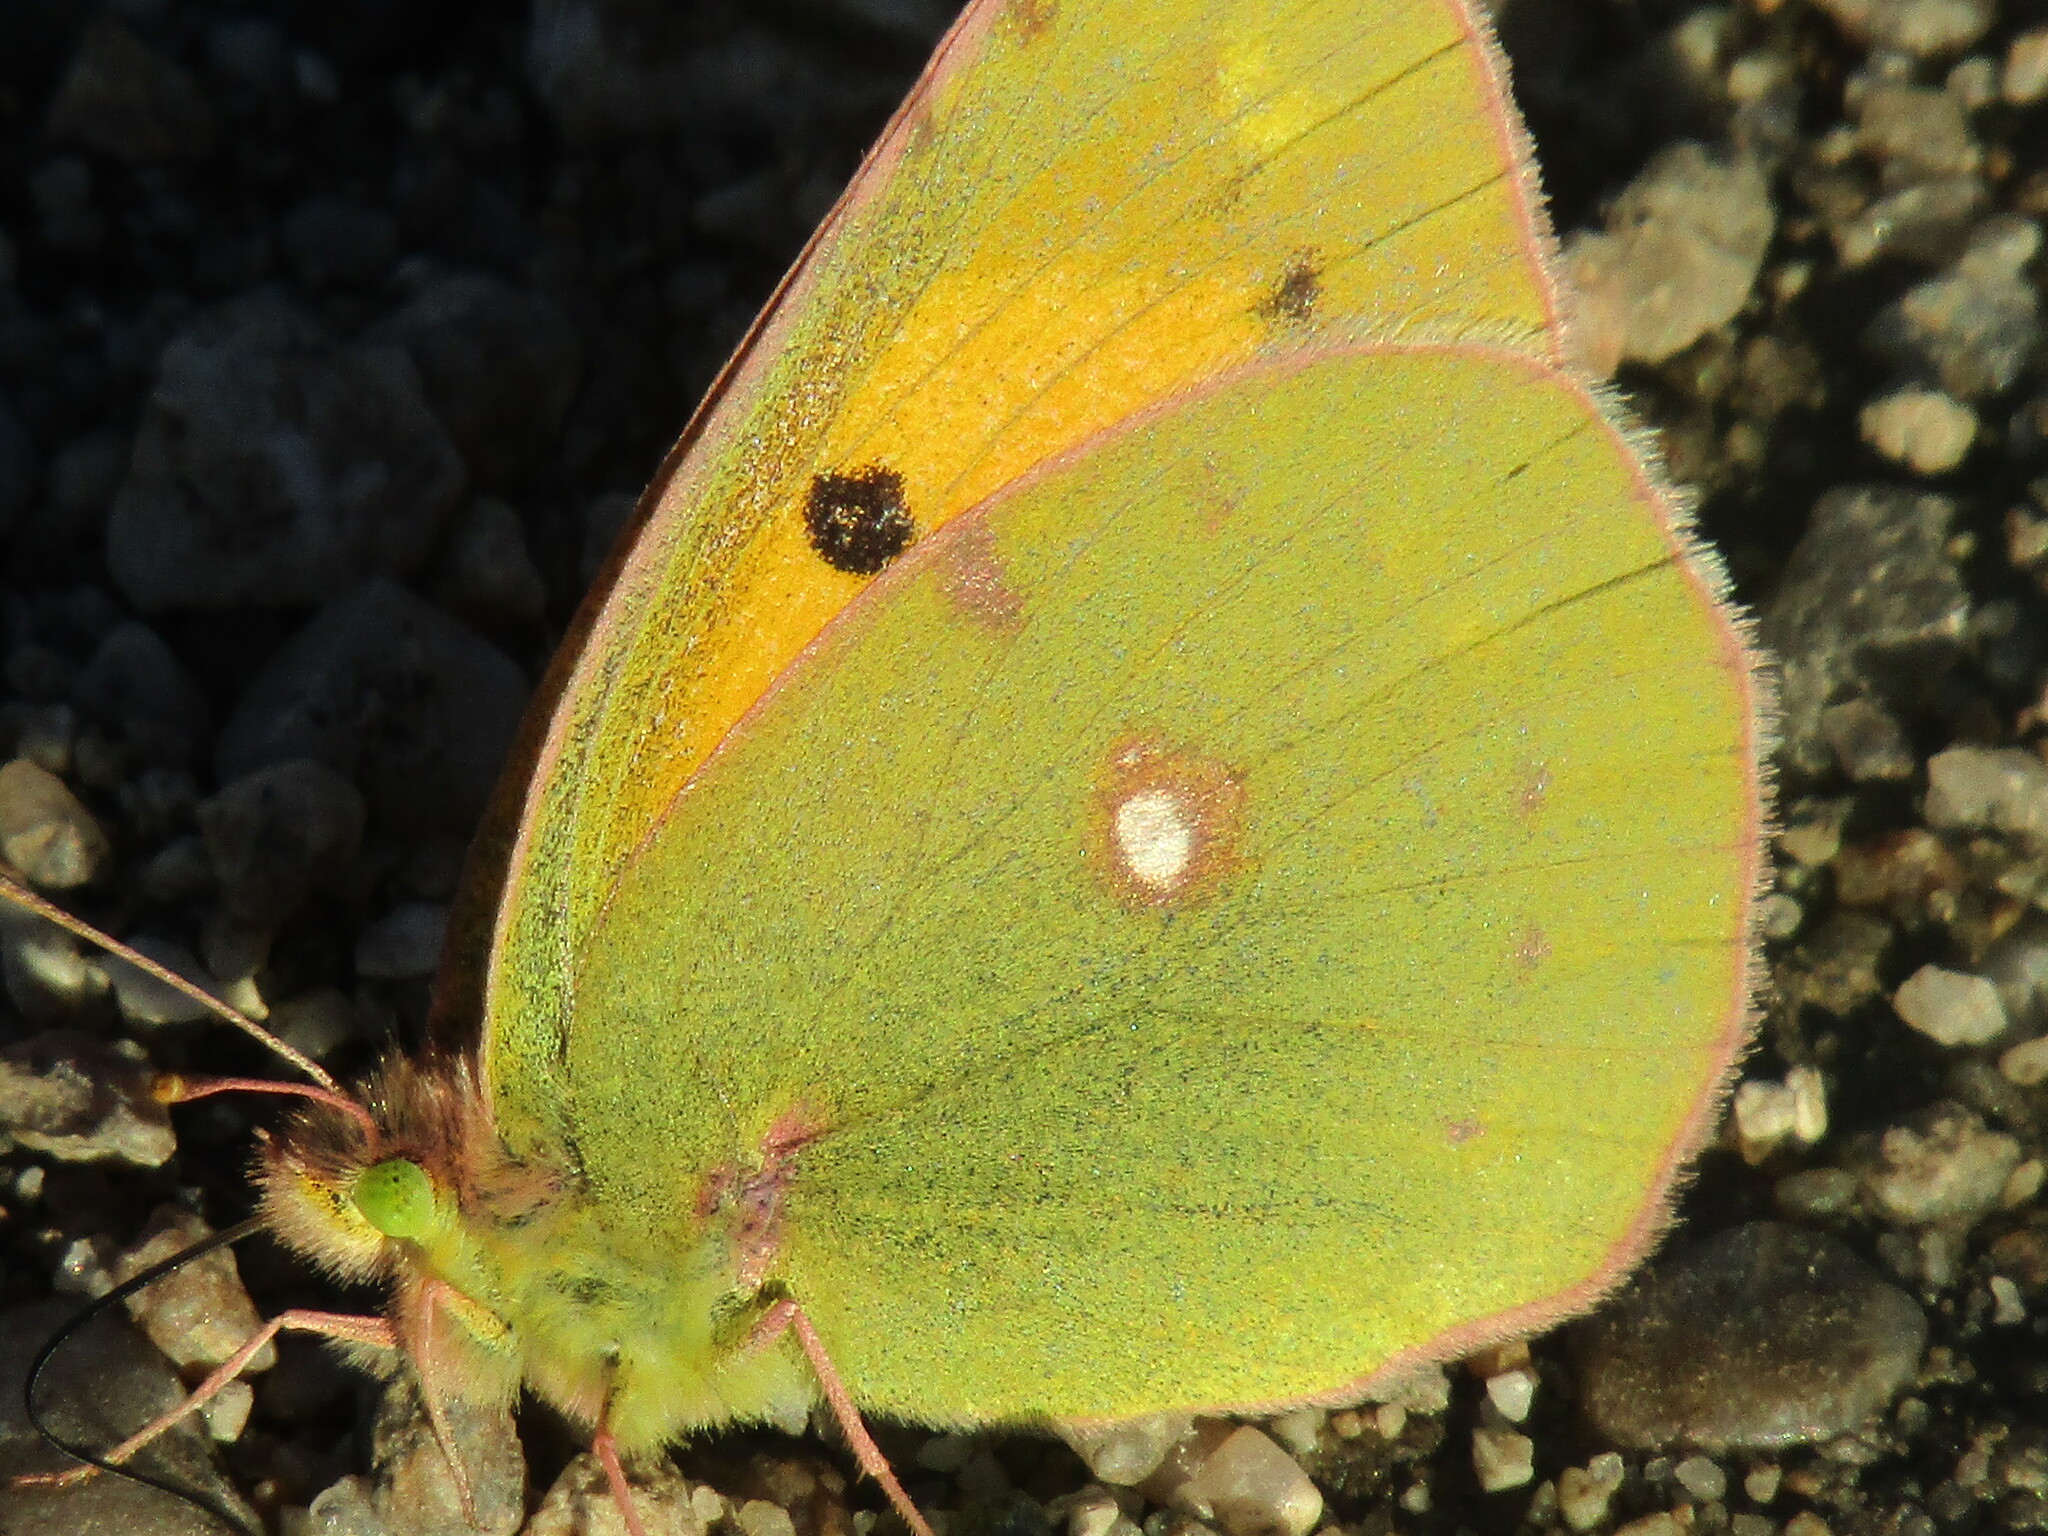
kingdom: Animalia
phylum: Arthropoda
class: Insecta
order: Lepidoptera
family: Pieridae
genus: Colias
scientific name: Colias croceus
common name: Clouded yellow
